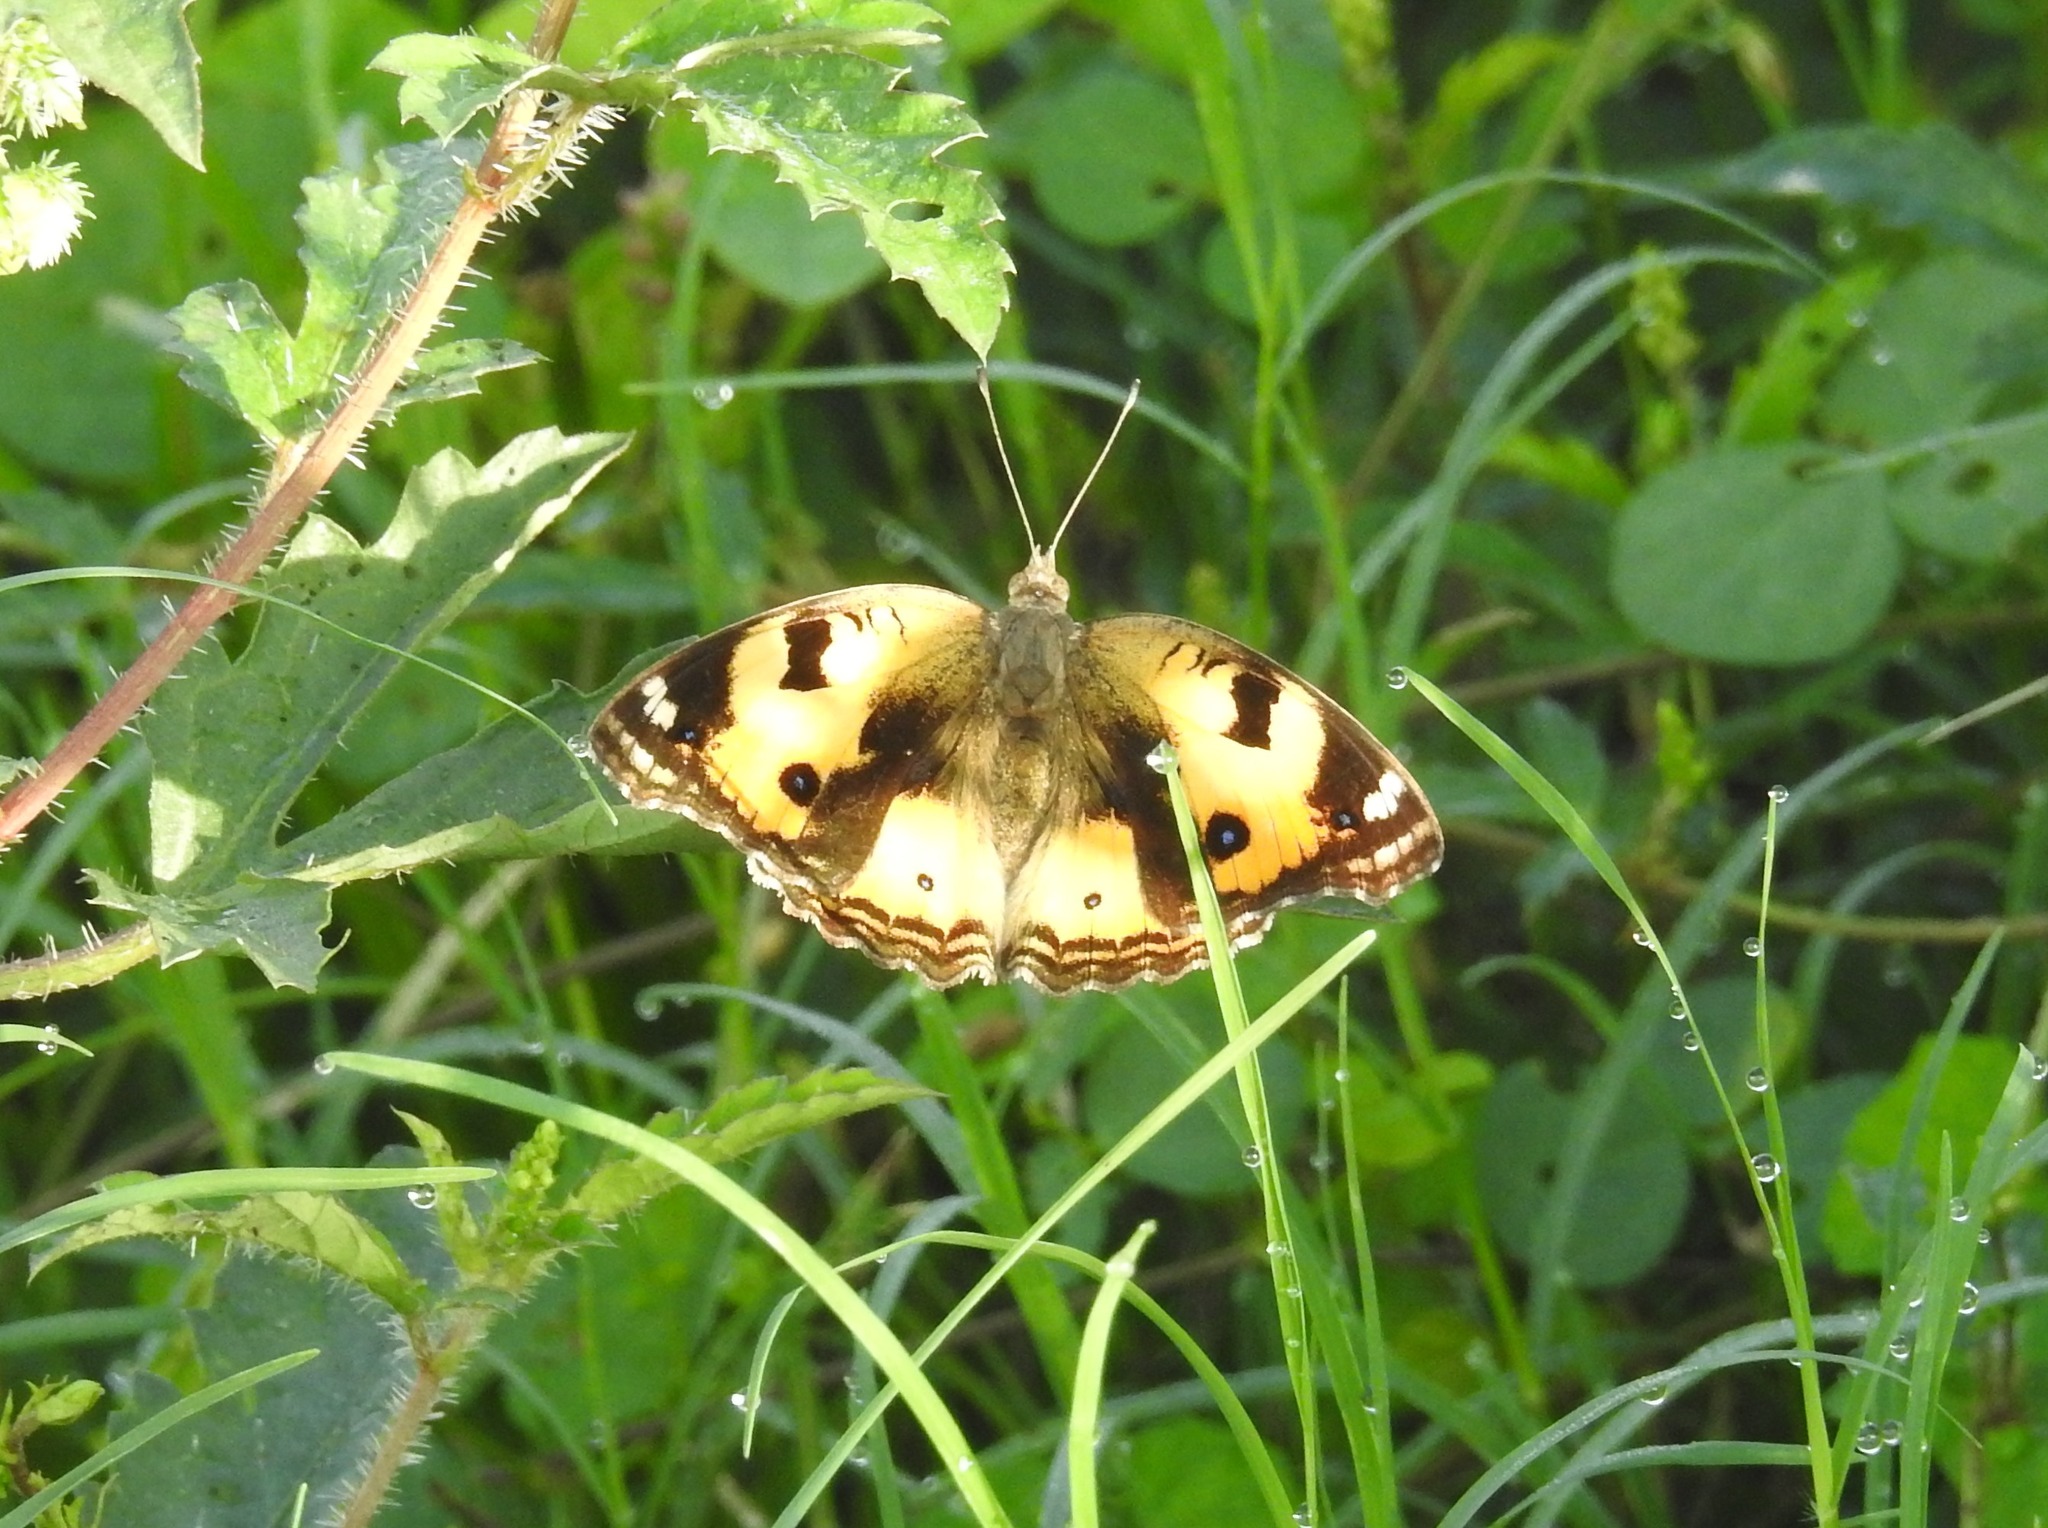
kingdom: Animalia
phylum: Arthropoda
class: Insecta
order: Lepidoptera
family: Nymphalidae
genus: Junonia
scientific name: Junonia hierta
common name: Yellow pansy
